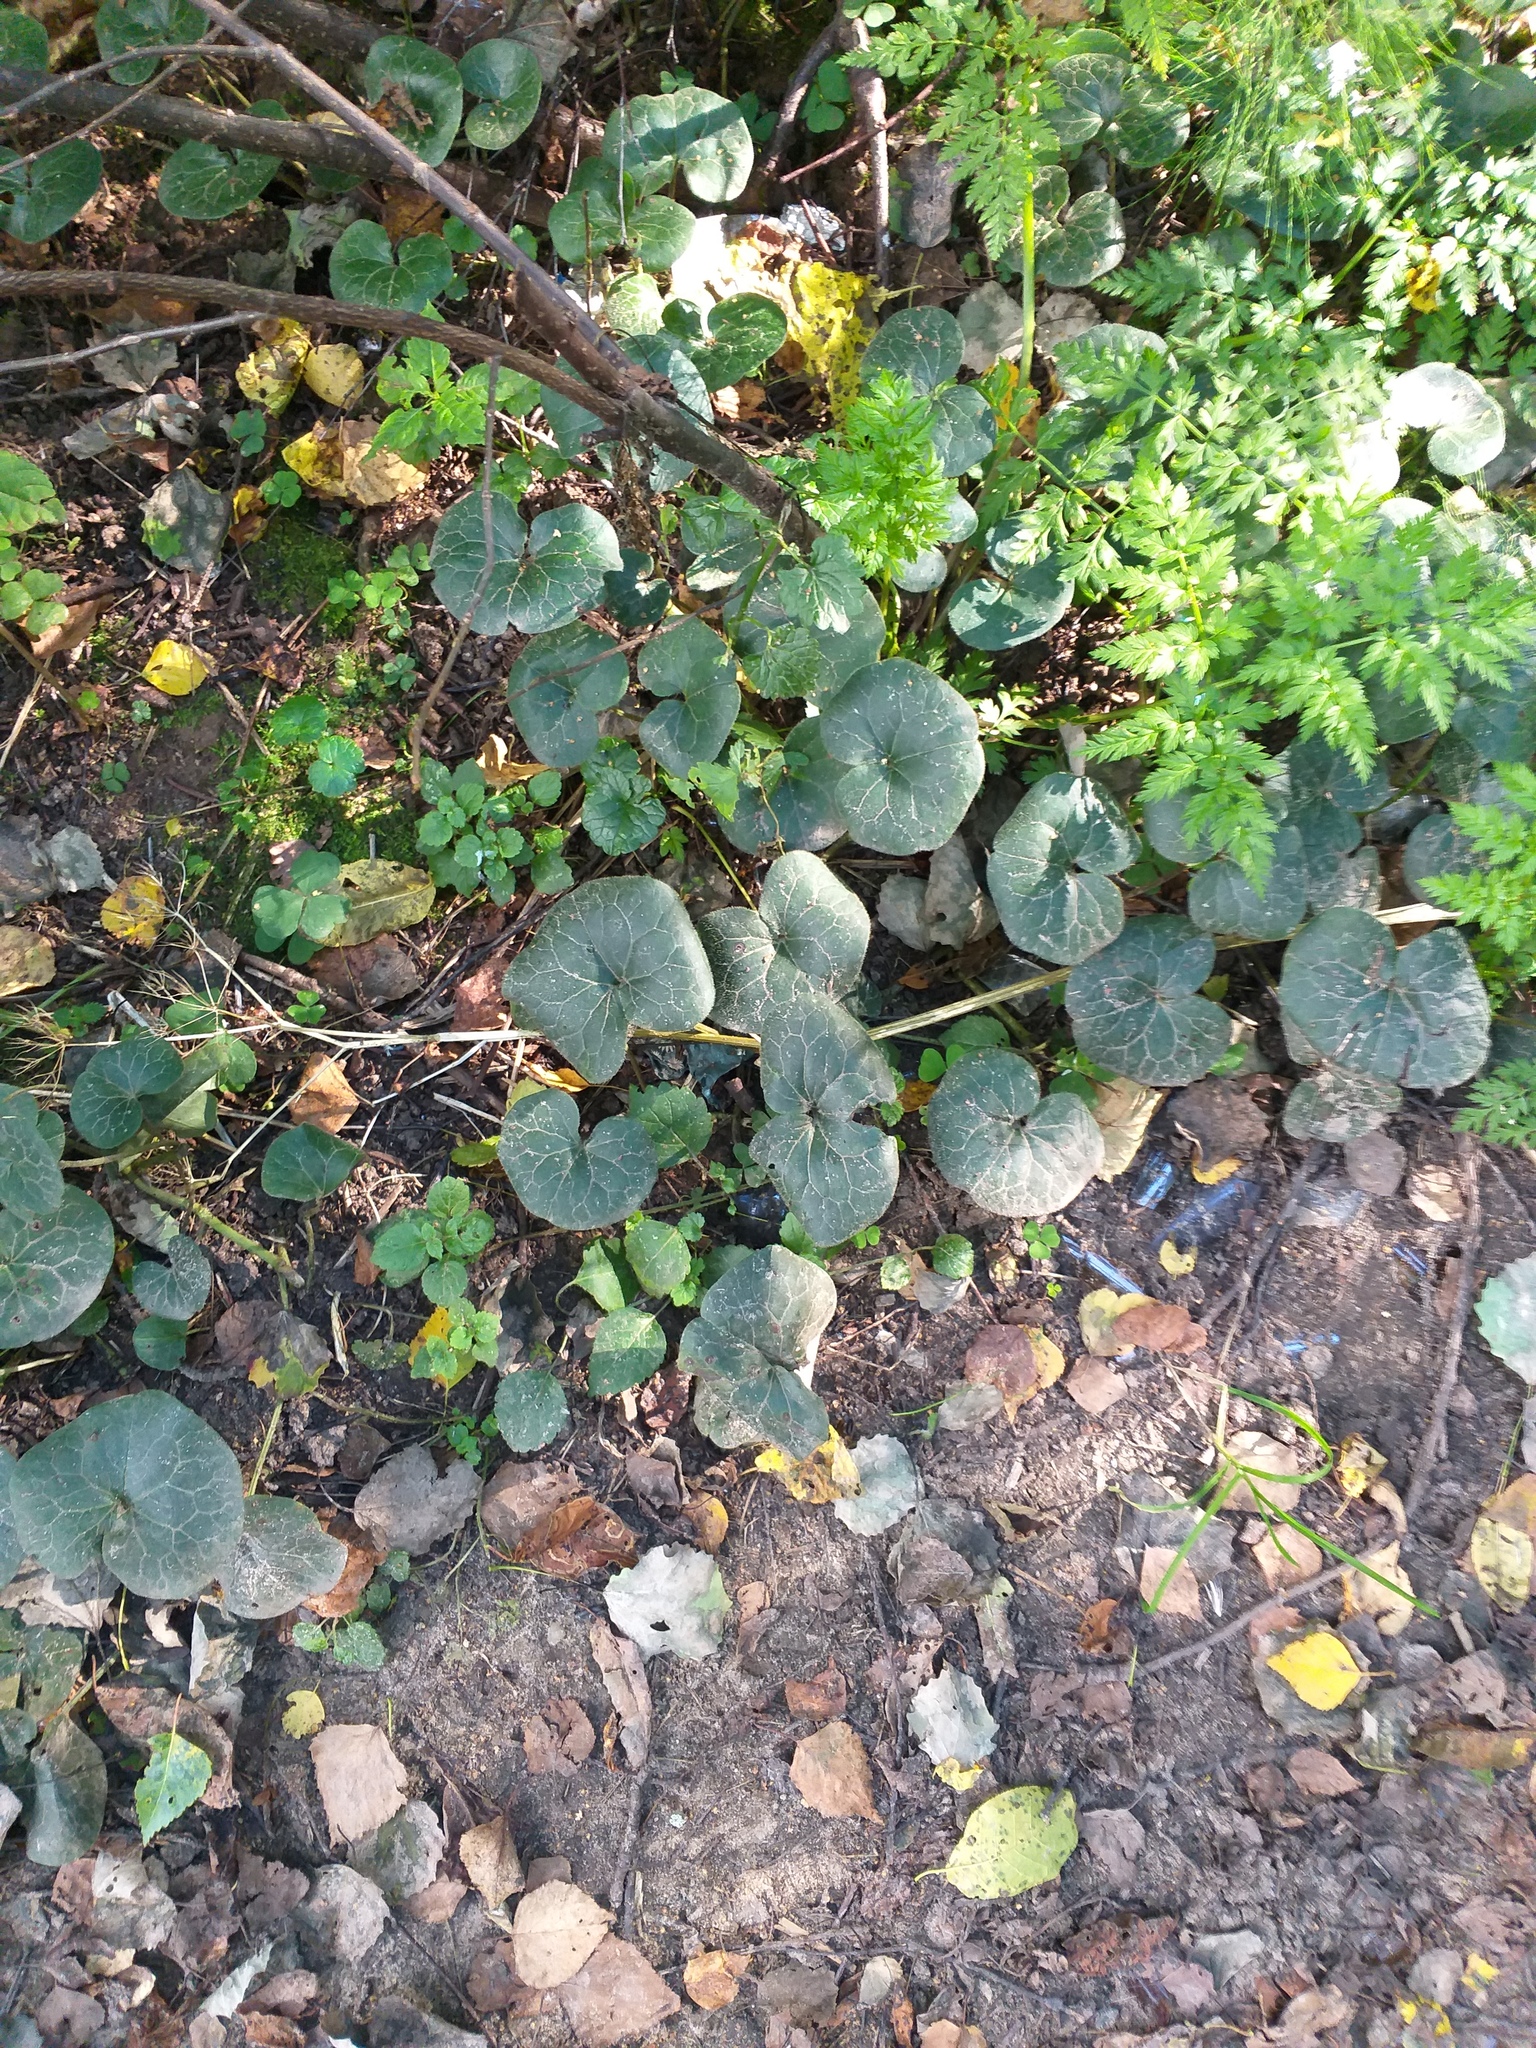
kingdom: Plantae
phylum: Tracheophyta
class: Magnoliopsida
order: Piperales
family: Aristolochiaceae
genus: Asarum
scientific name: Asarum europaeum
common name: Asarabacca
